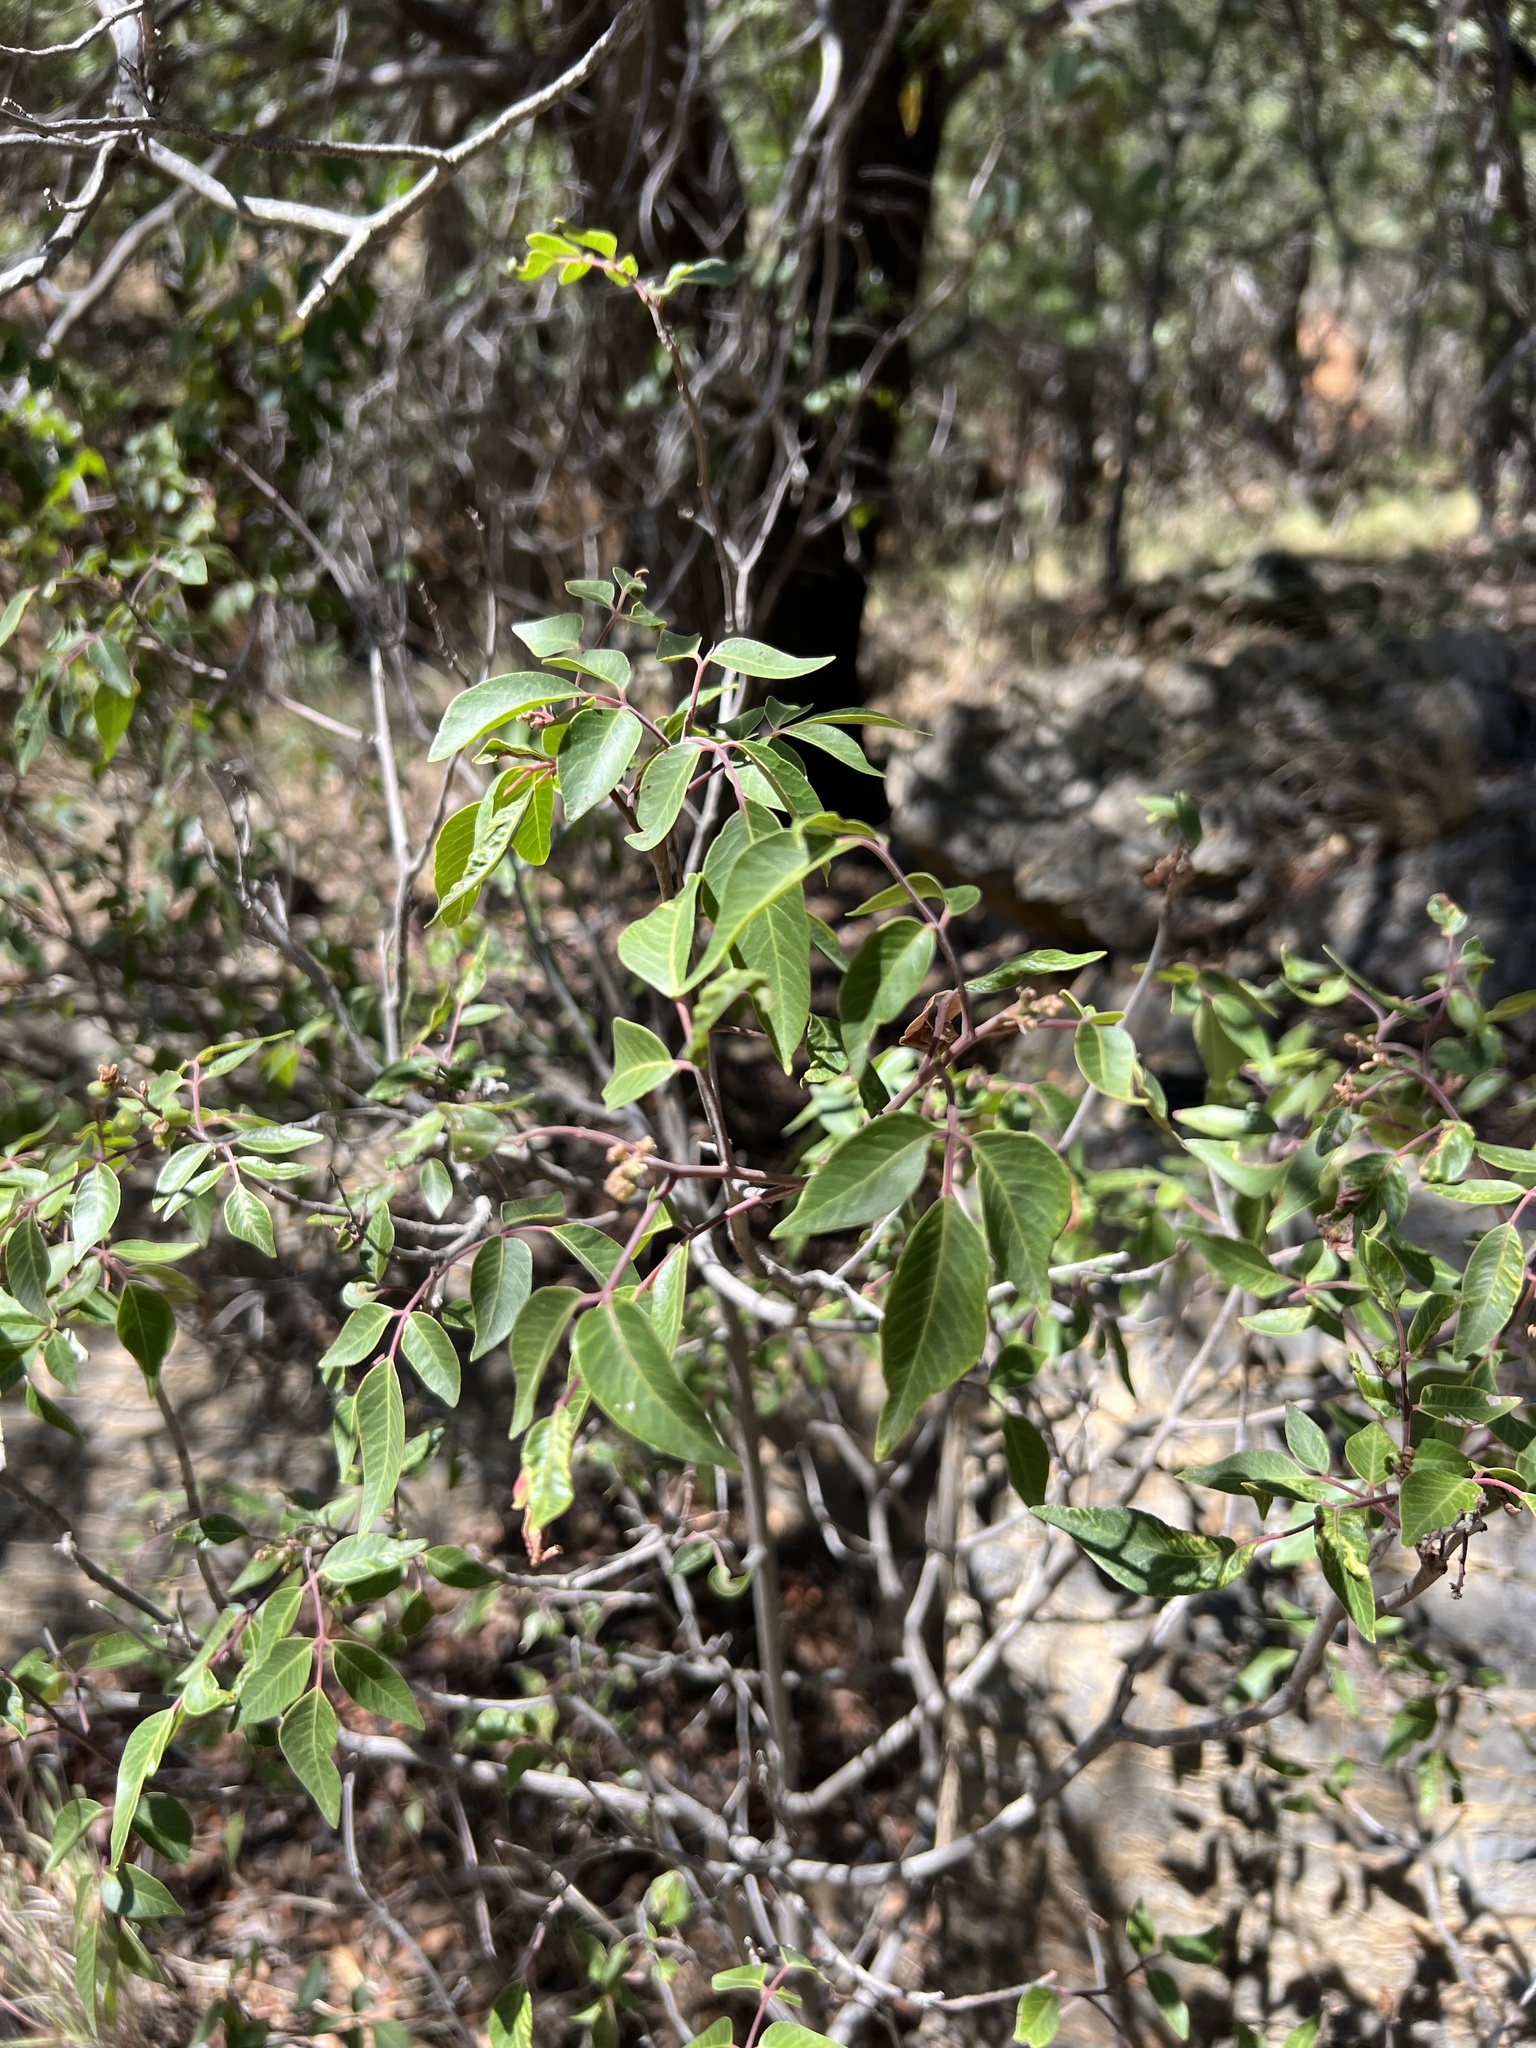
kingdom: Plantae
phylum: Tracheophyta
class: Magnoliopsida
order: Sapindales
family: Anacardiaceae
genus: Rhus
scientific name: Rhus virens
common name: Evergreen sumac
